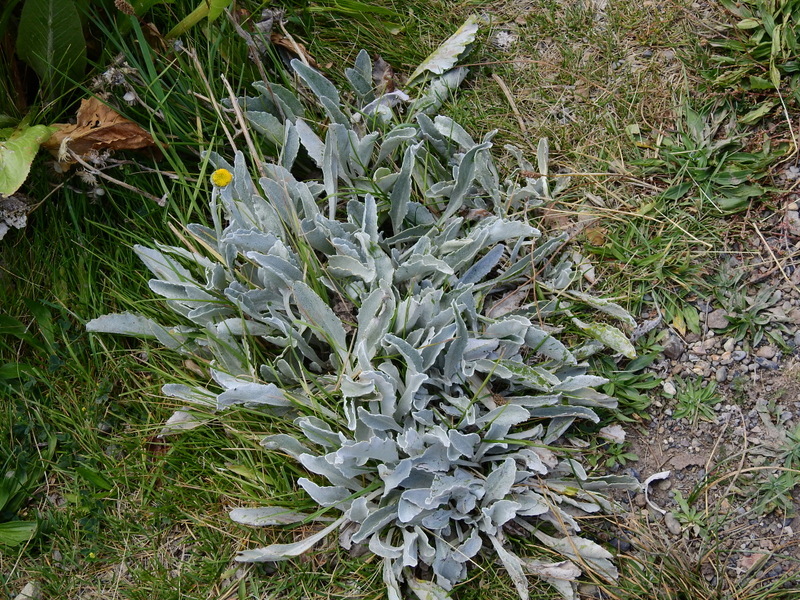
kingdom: Plantae
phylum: Tracheophyta
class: Magnoliopsida
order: Asterales
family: Asteraceae
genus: Senecio
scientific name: Senecio gilliesii
